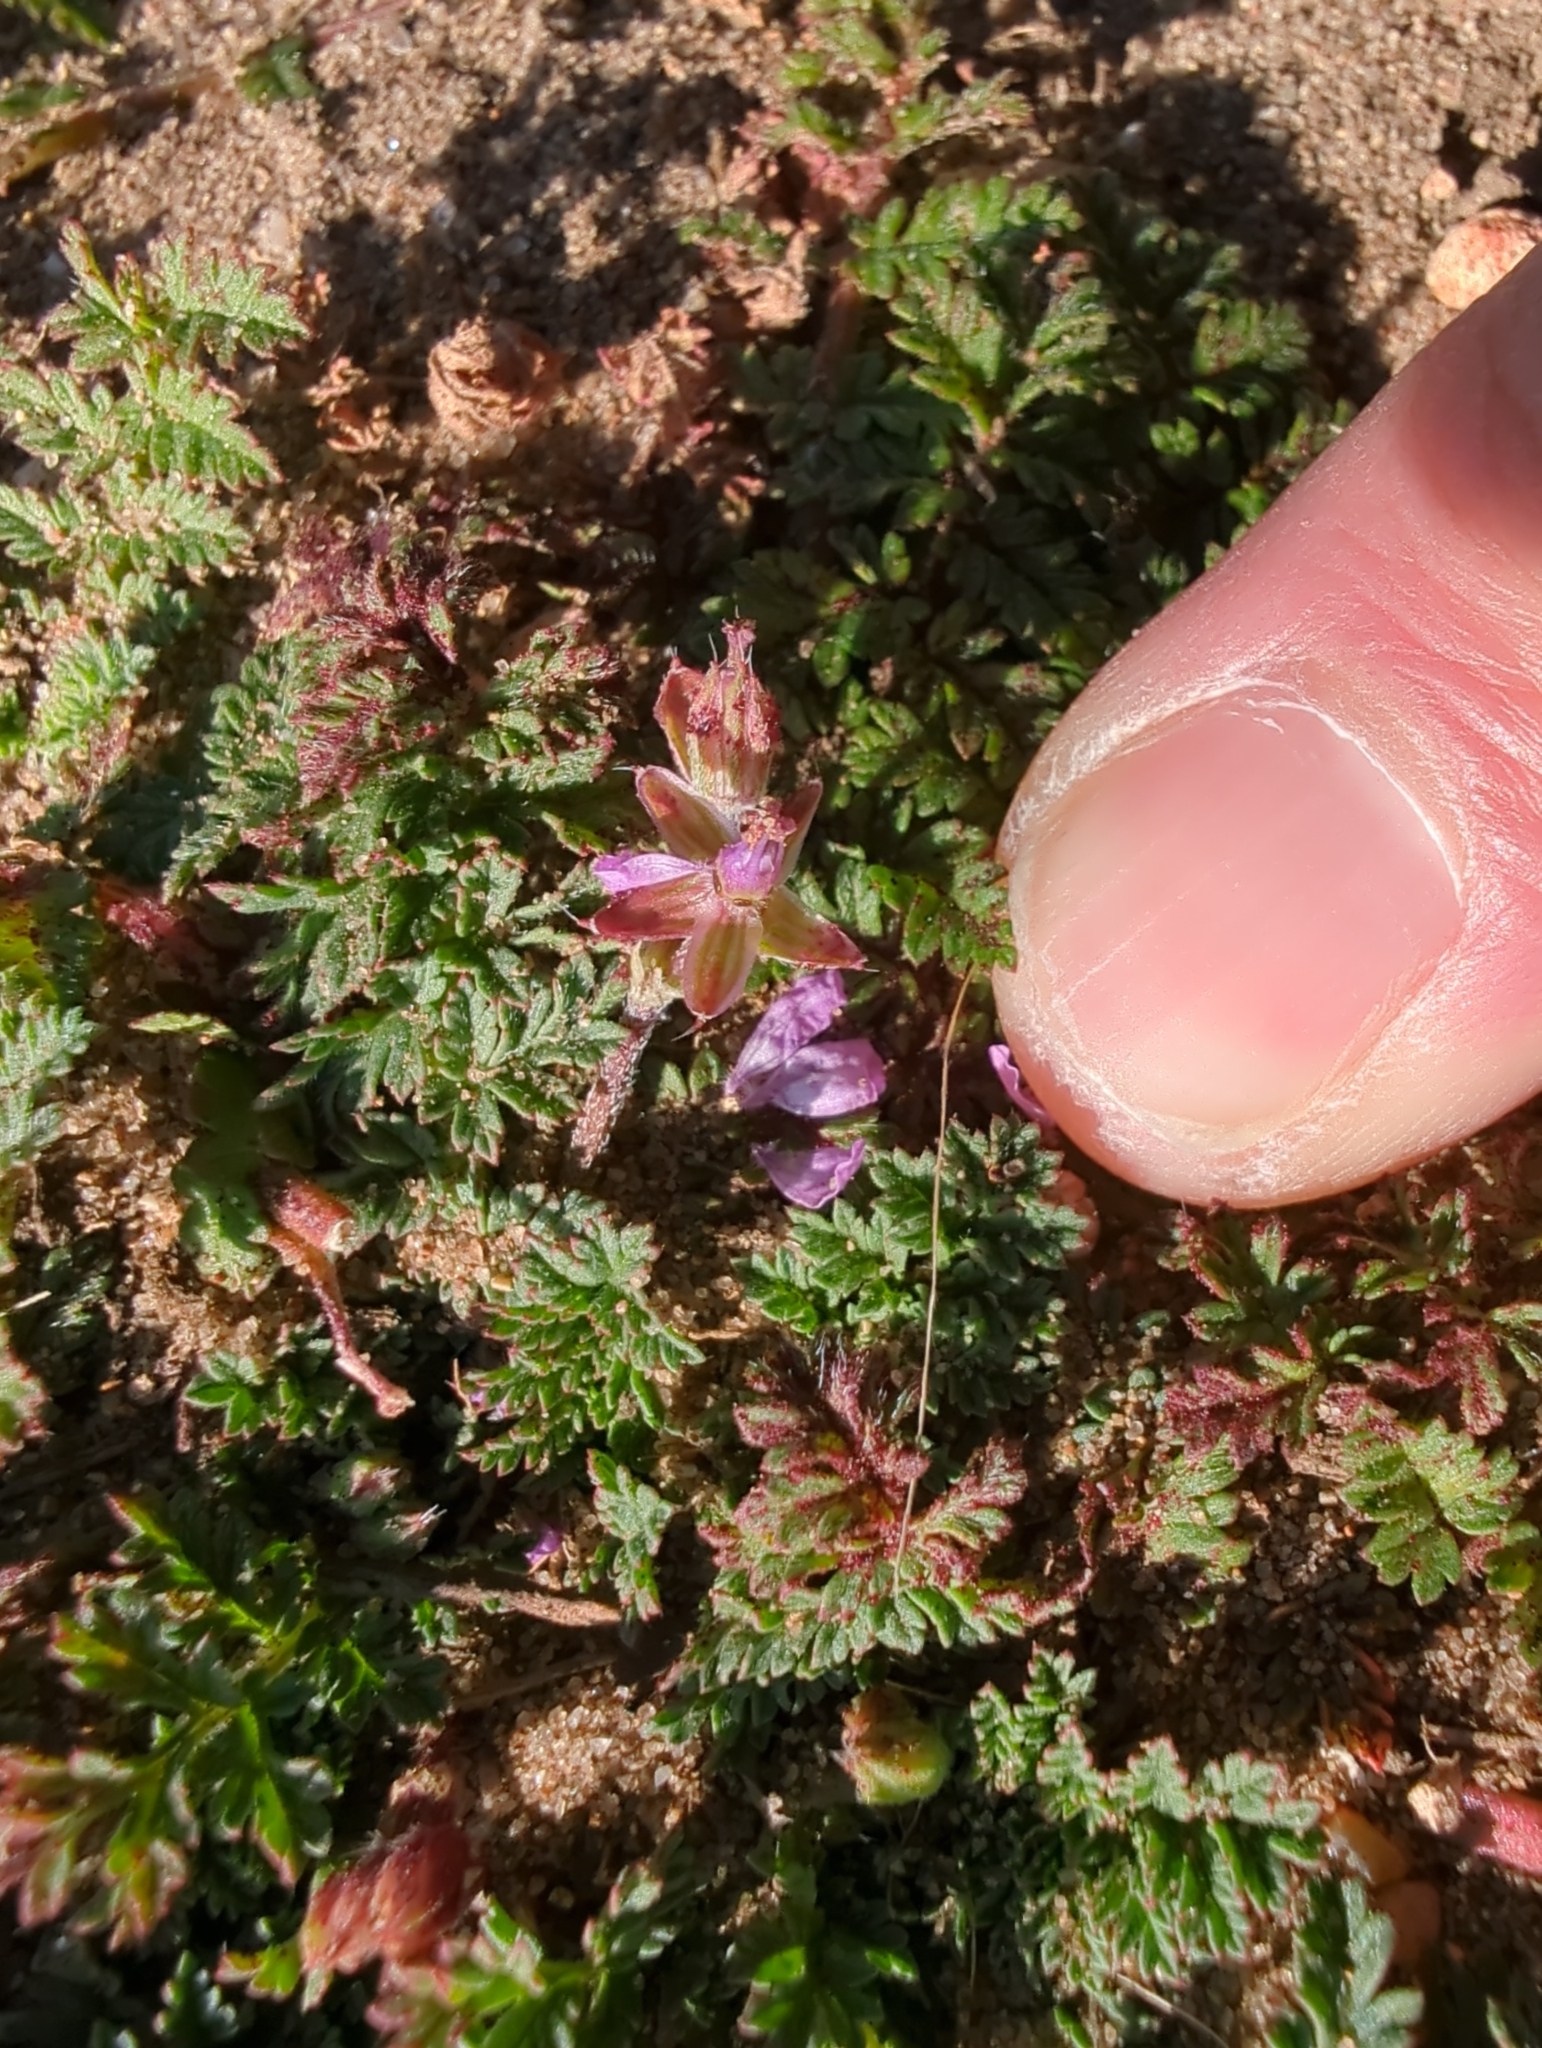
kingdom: Plantae
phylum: Tracheophyta
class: Magnoliopsida
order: Geraniales
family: Geraniaceae
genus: Erodium
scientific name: Erodium cicutarium
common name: Common stork's-bill
